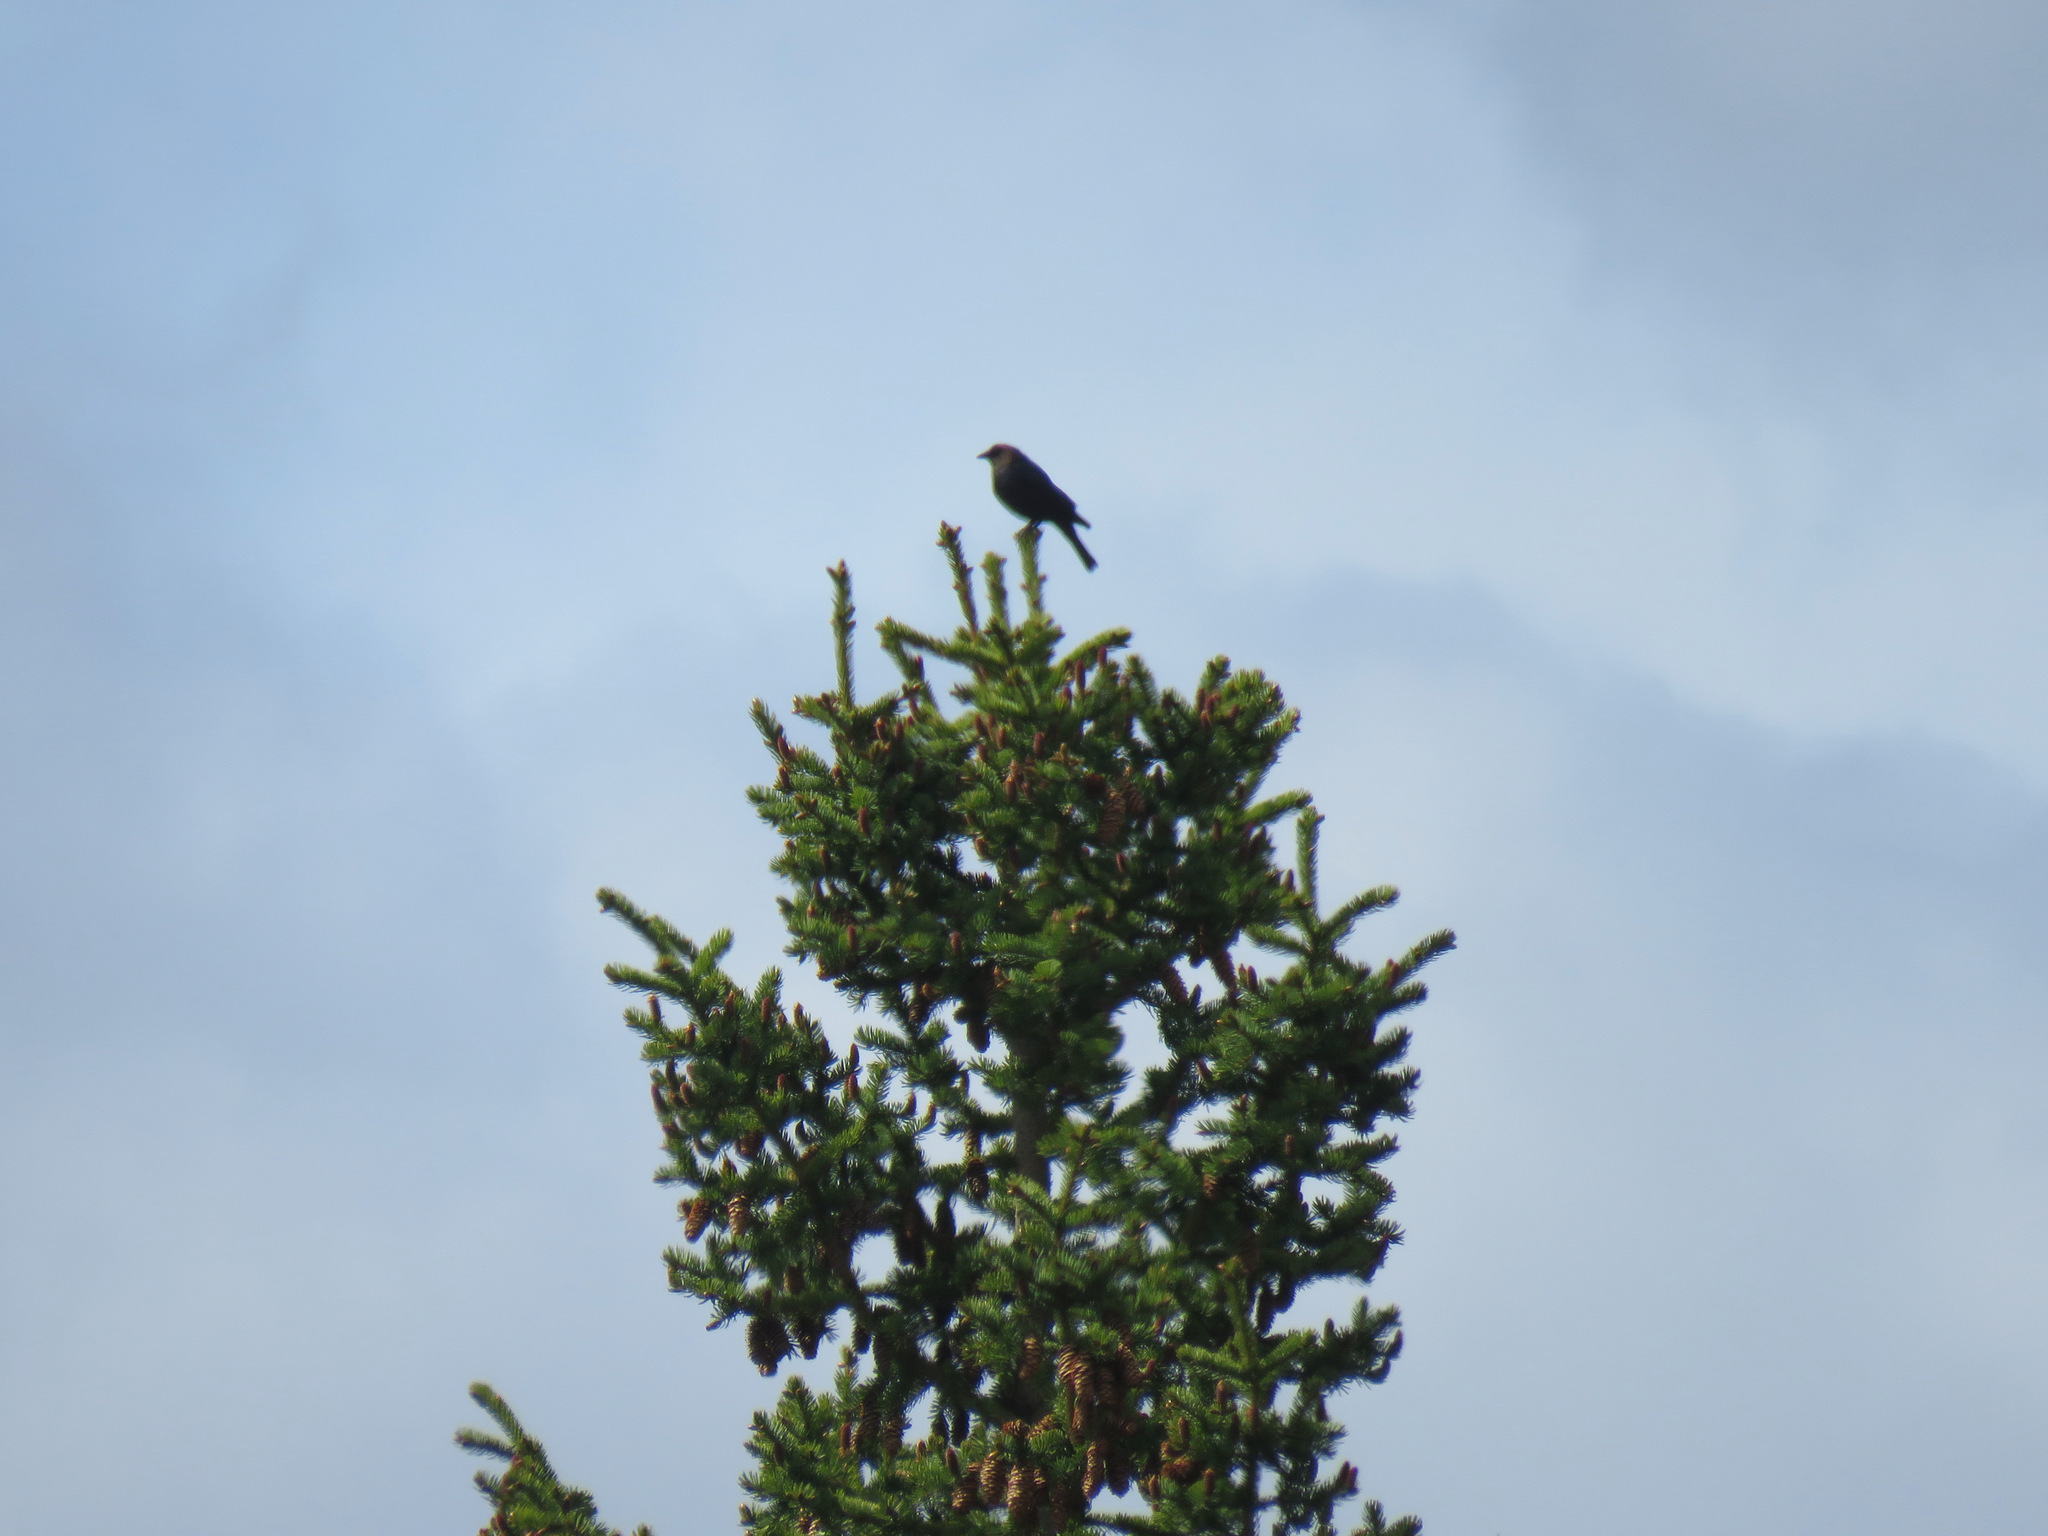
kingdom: Animalia
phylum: Chordata
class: Aves
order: Passeriformes
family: Icteridae
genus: Molothrus
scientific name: Molothrus ater
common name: Brown-headed cowbird
